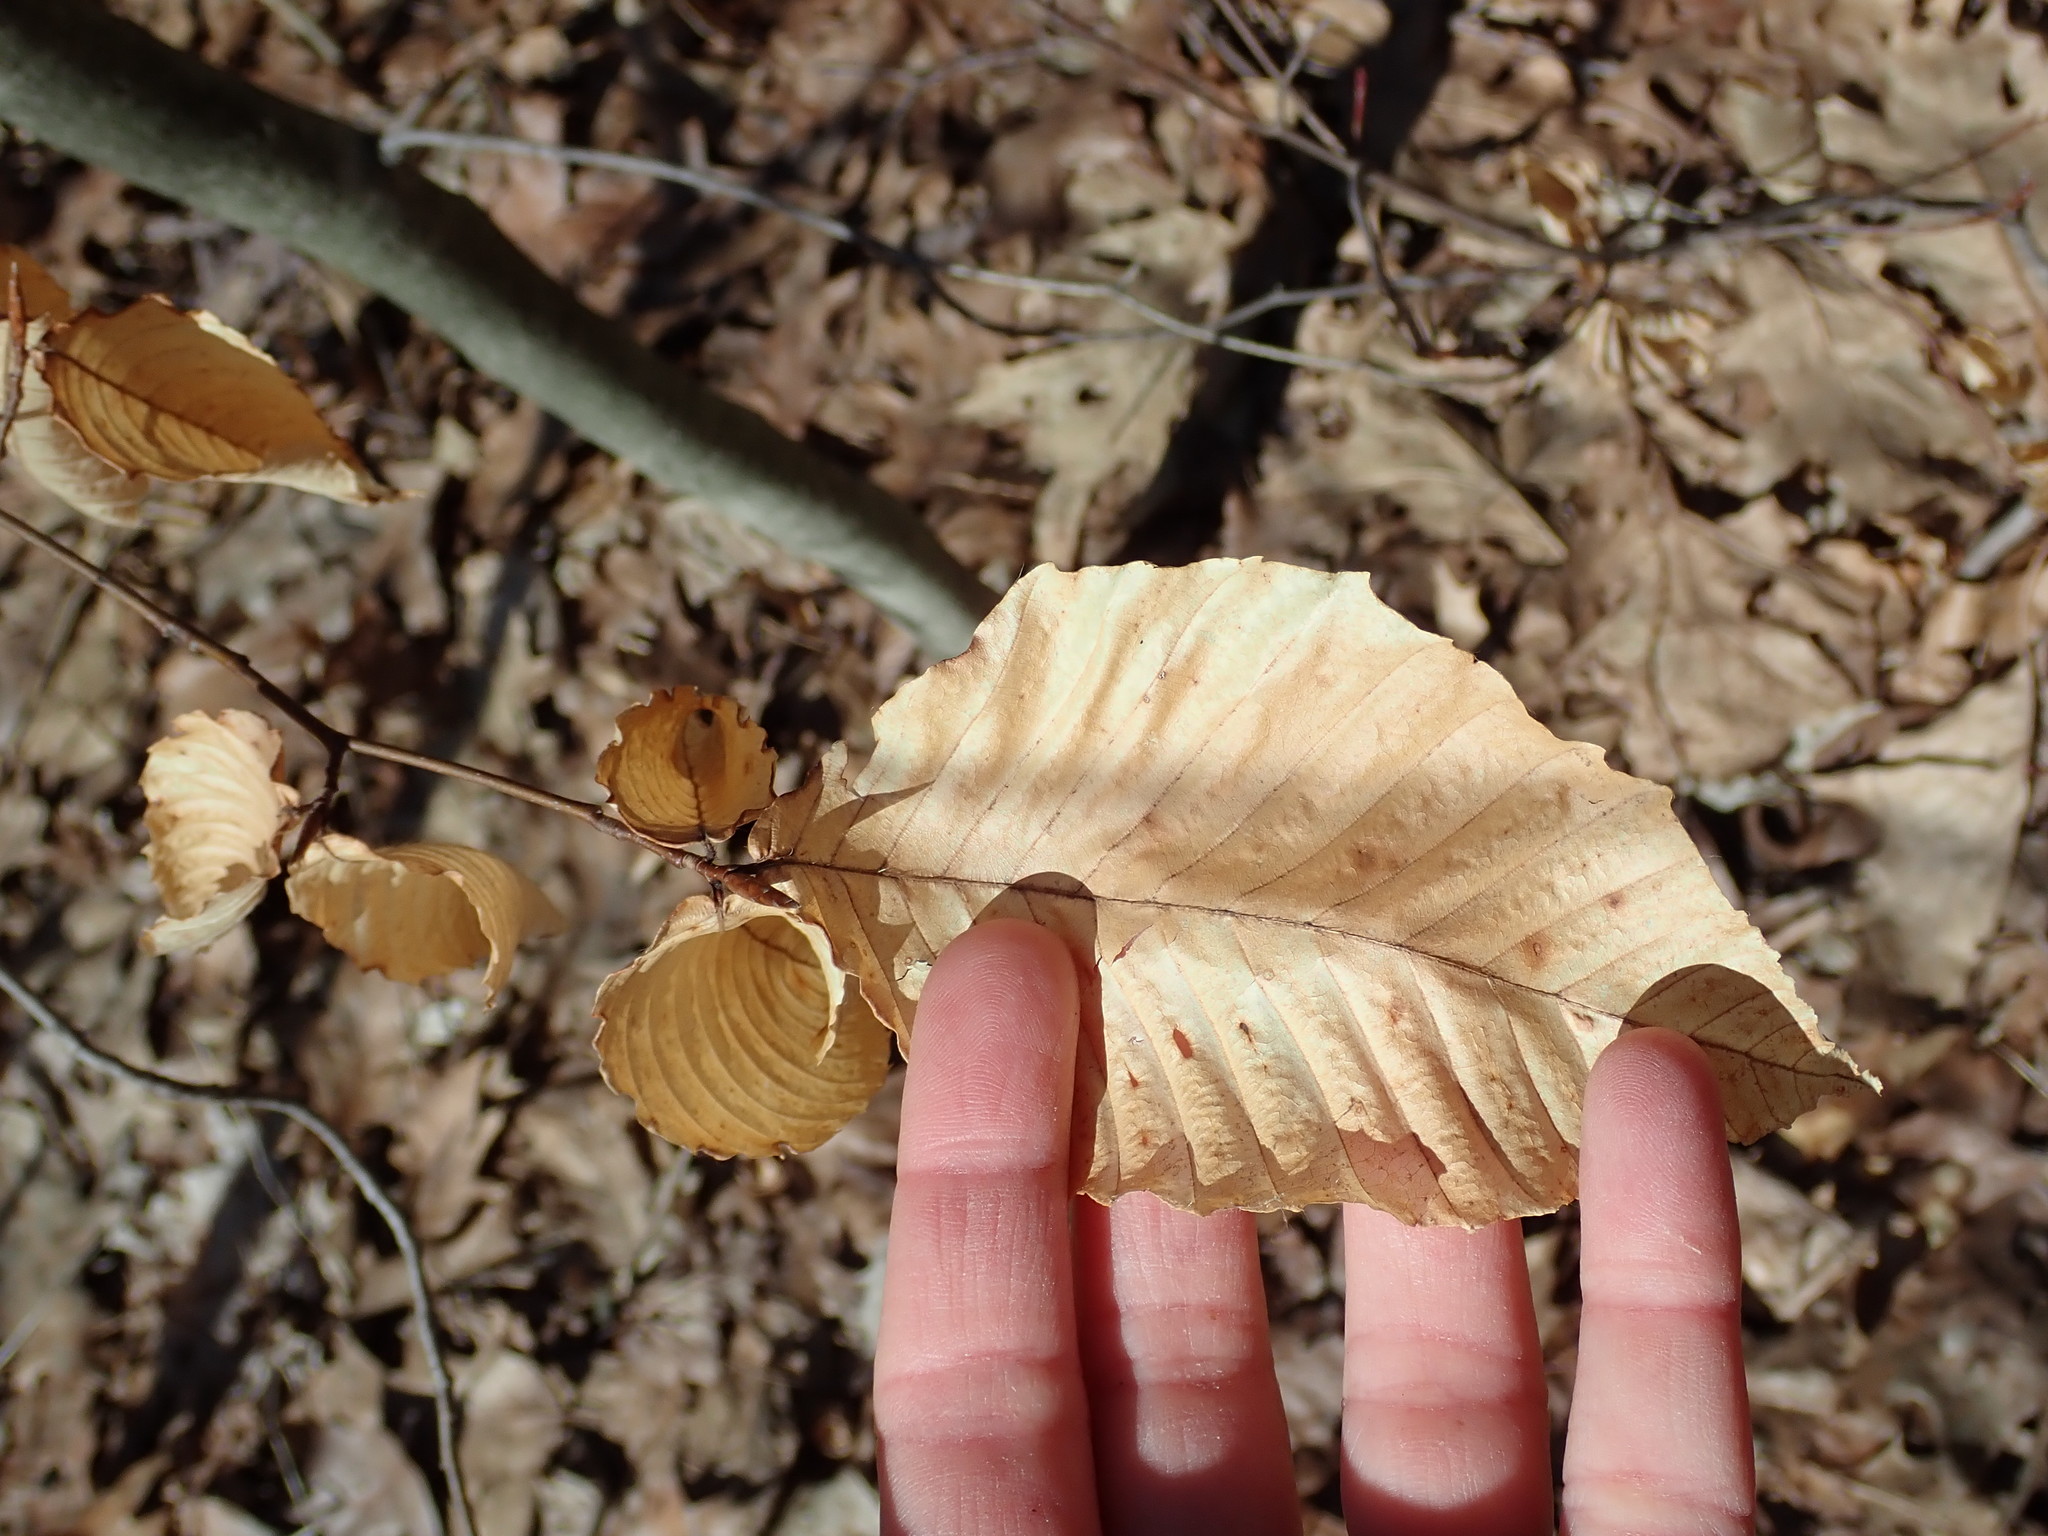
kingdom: Plantae
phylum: Tracheophyta
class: Magnoliopsida
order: Fagales
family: Fagaceae
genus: Fagus
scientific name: Fagus grandifolia
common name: American beech
